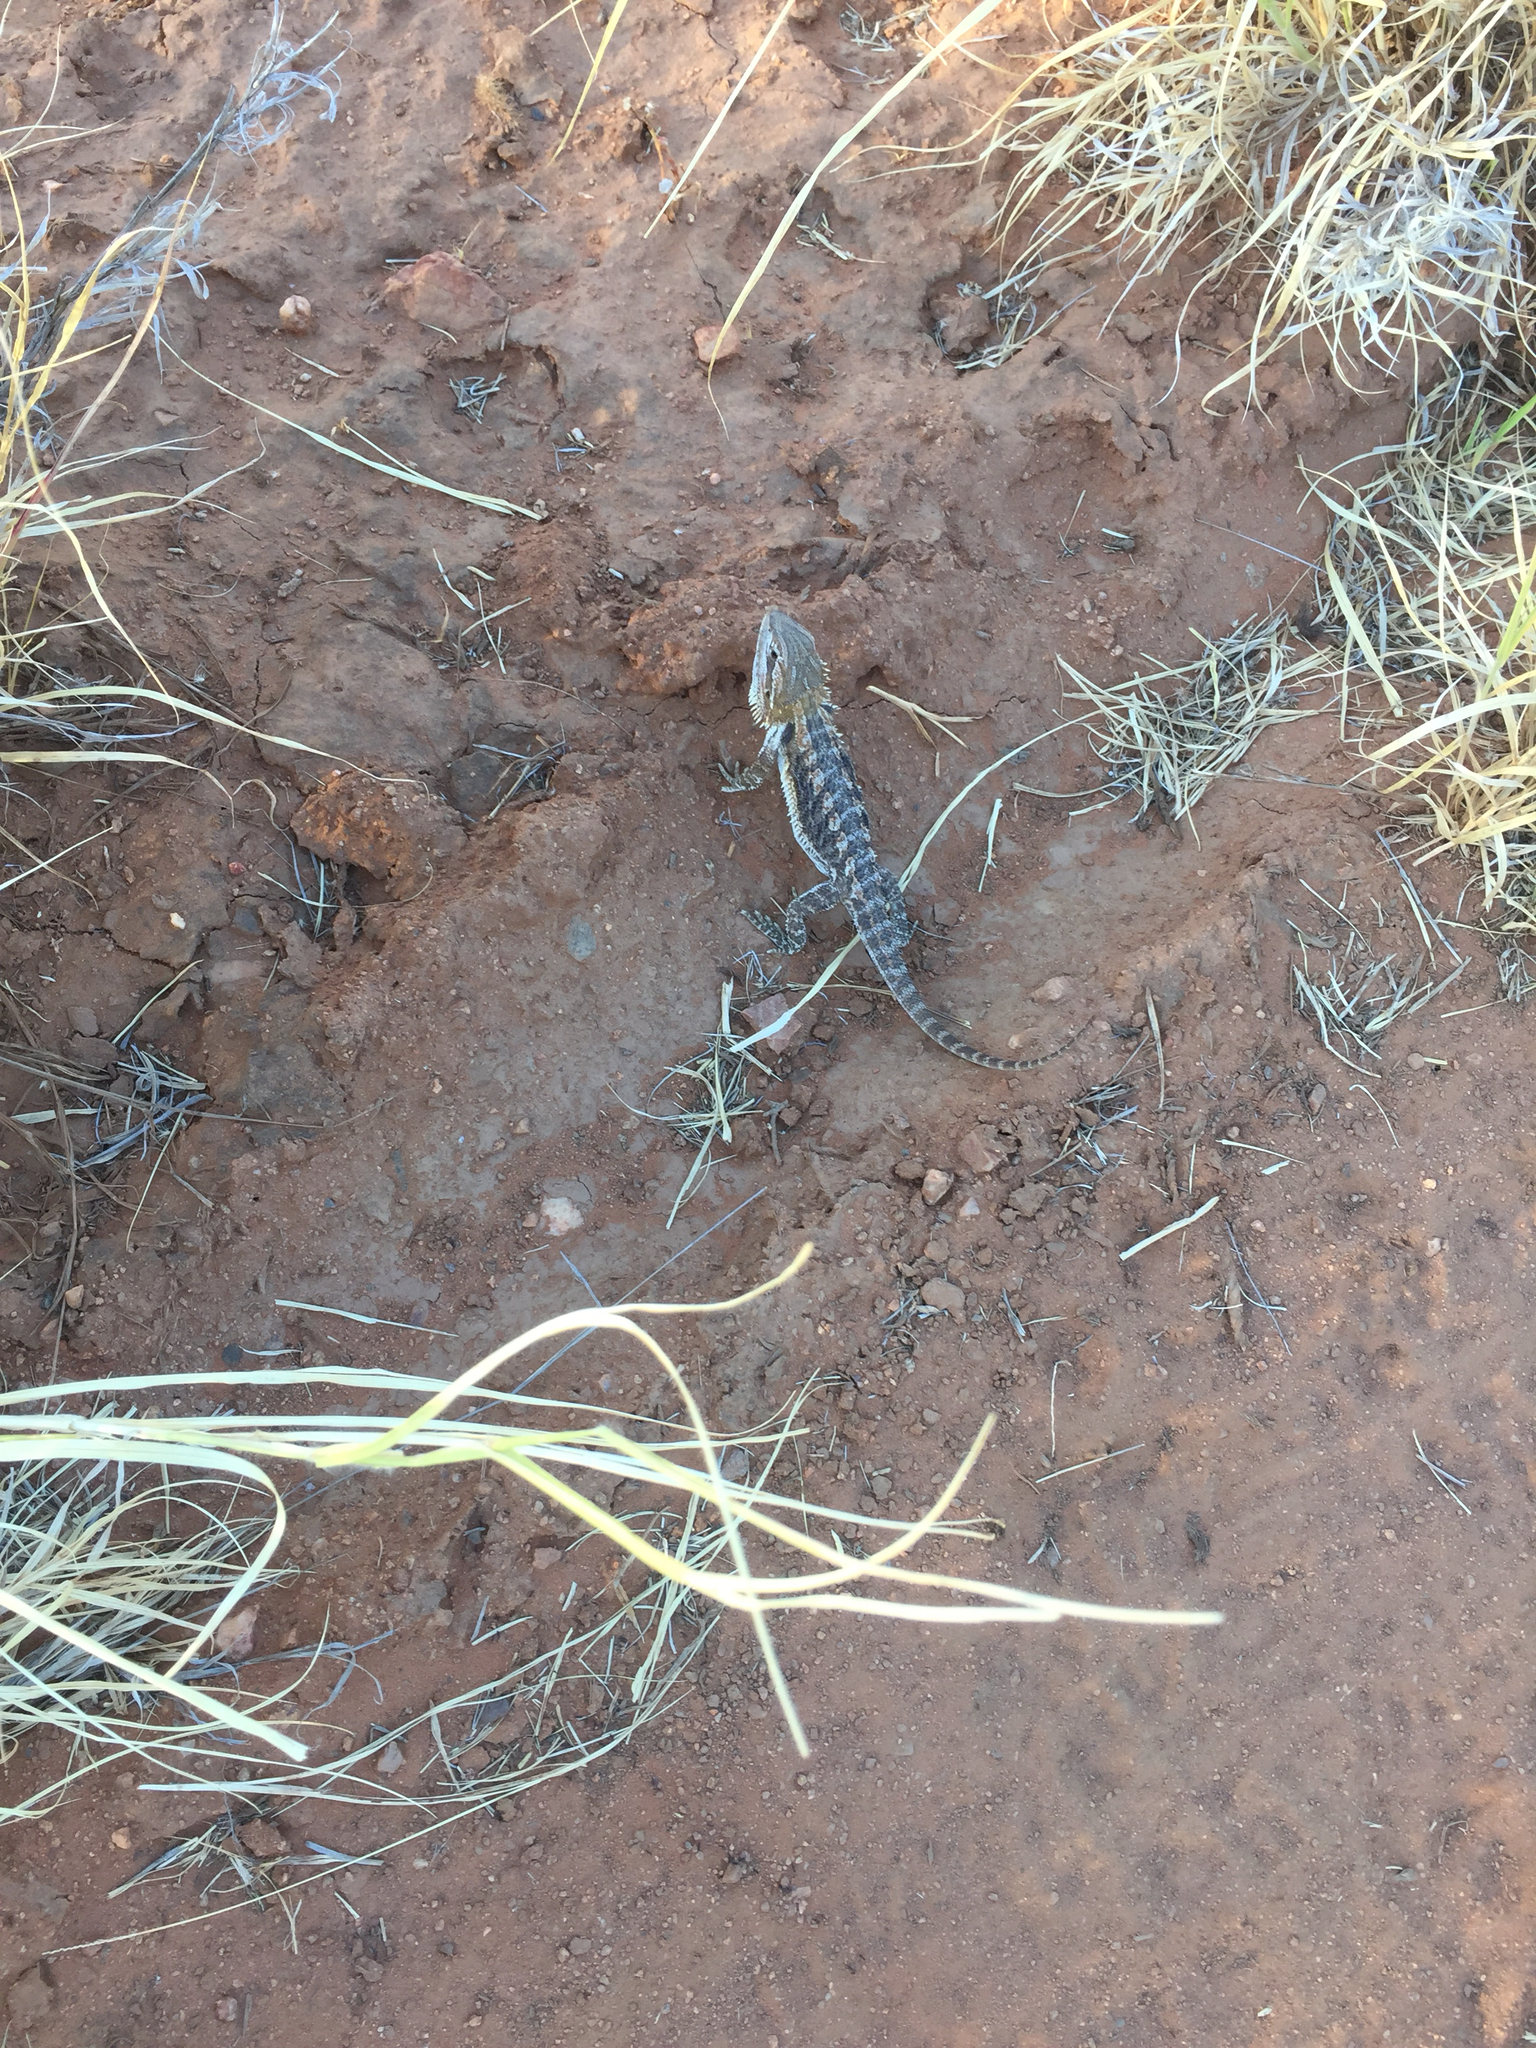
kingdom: Animalia
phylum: Chordata
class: Squamata
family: Agamidae
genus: Pogona
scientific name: Pogona vitticeps
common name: Central bearded dragon
